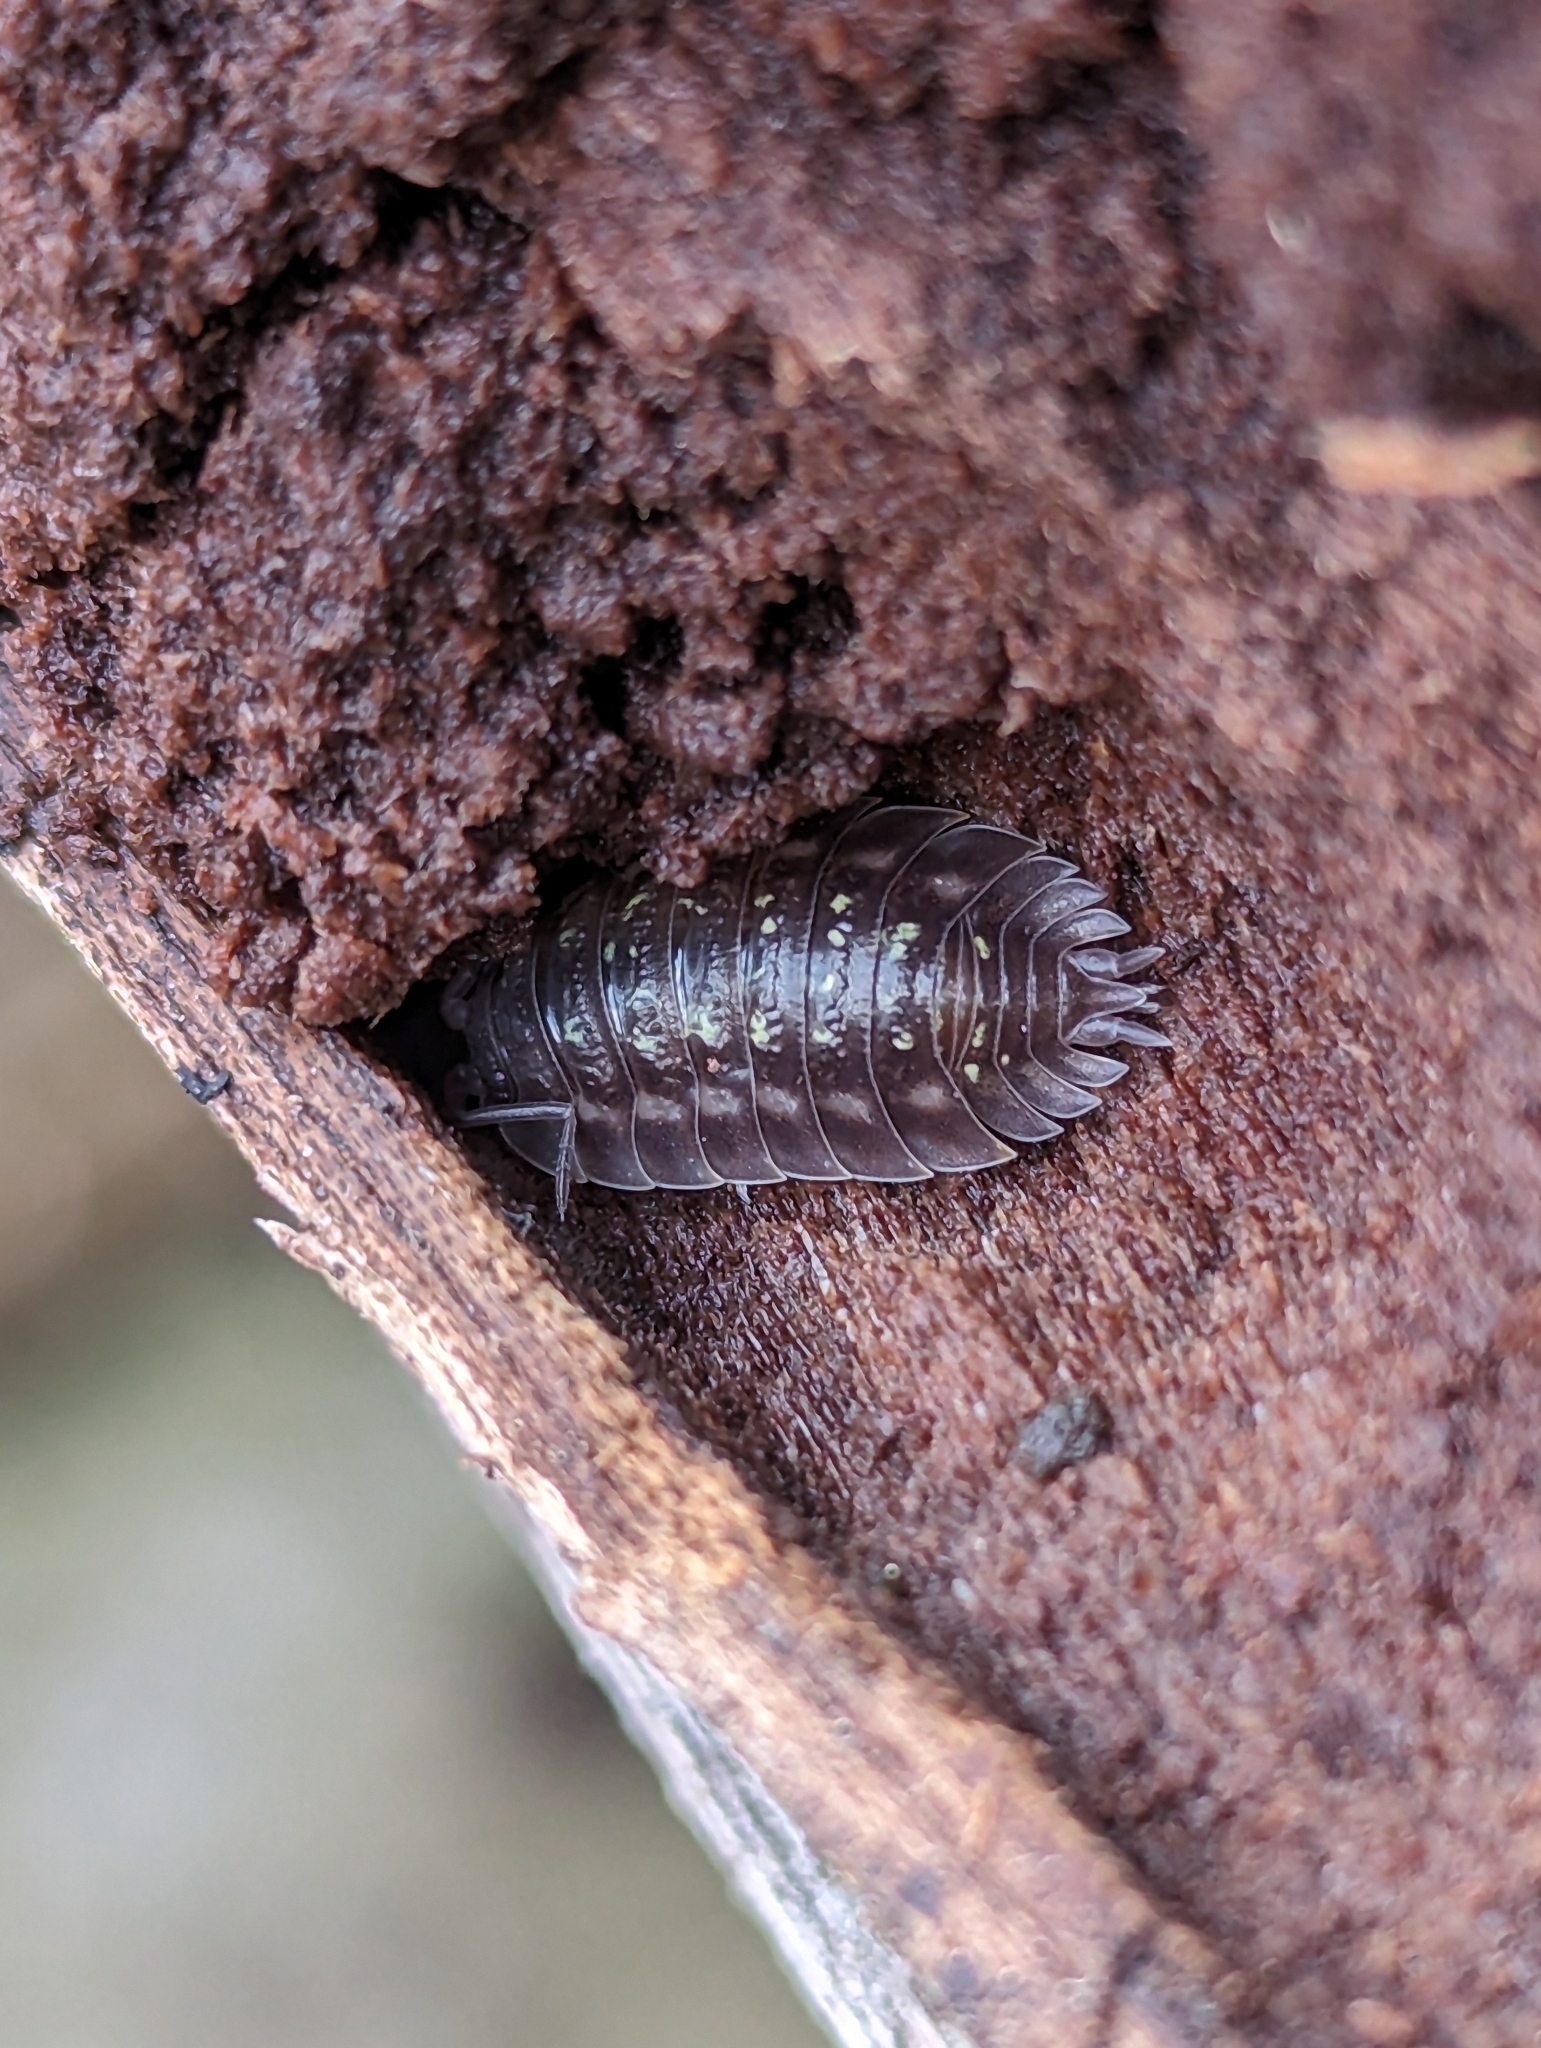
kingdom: Animalia
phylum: Arthropoda
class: Malacostraca
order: Isopoda
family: Oniscidae
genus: Oniscus
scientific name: Oniscus asellus
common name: Common shiny woodlouse
